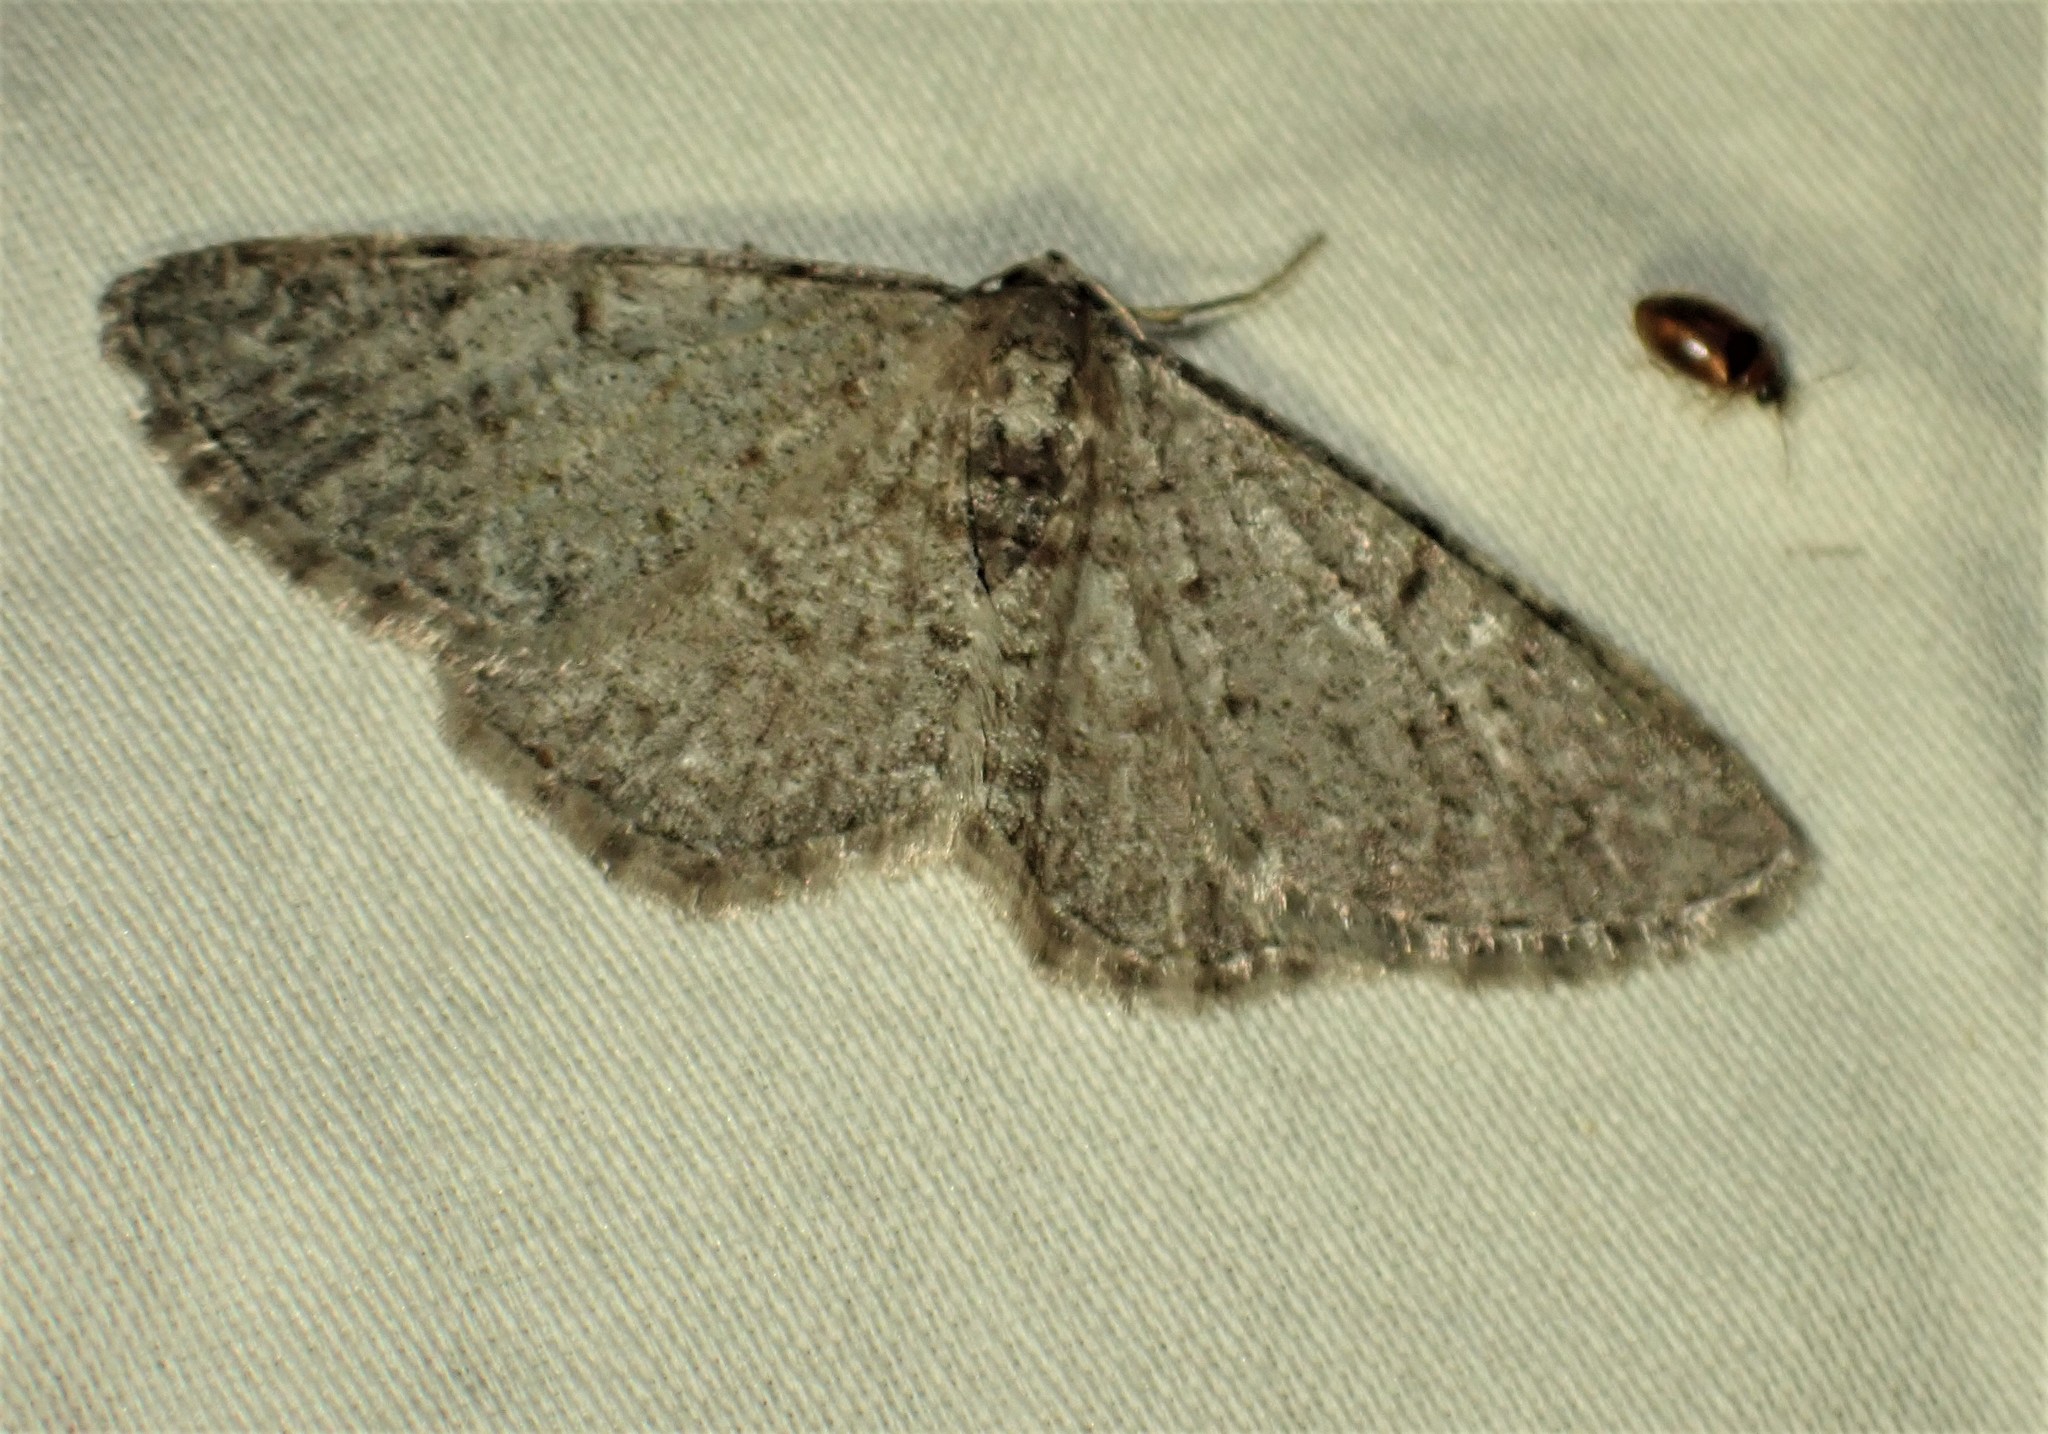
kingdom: Animalia
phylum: Arthropoda
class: Insecta
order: Lepidoptera
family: Geometridae
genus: Aethalura
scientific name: Aethalura intertexta
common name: Four-barred gray
